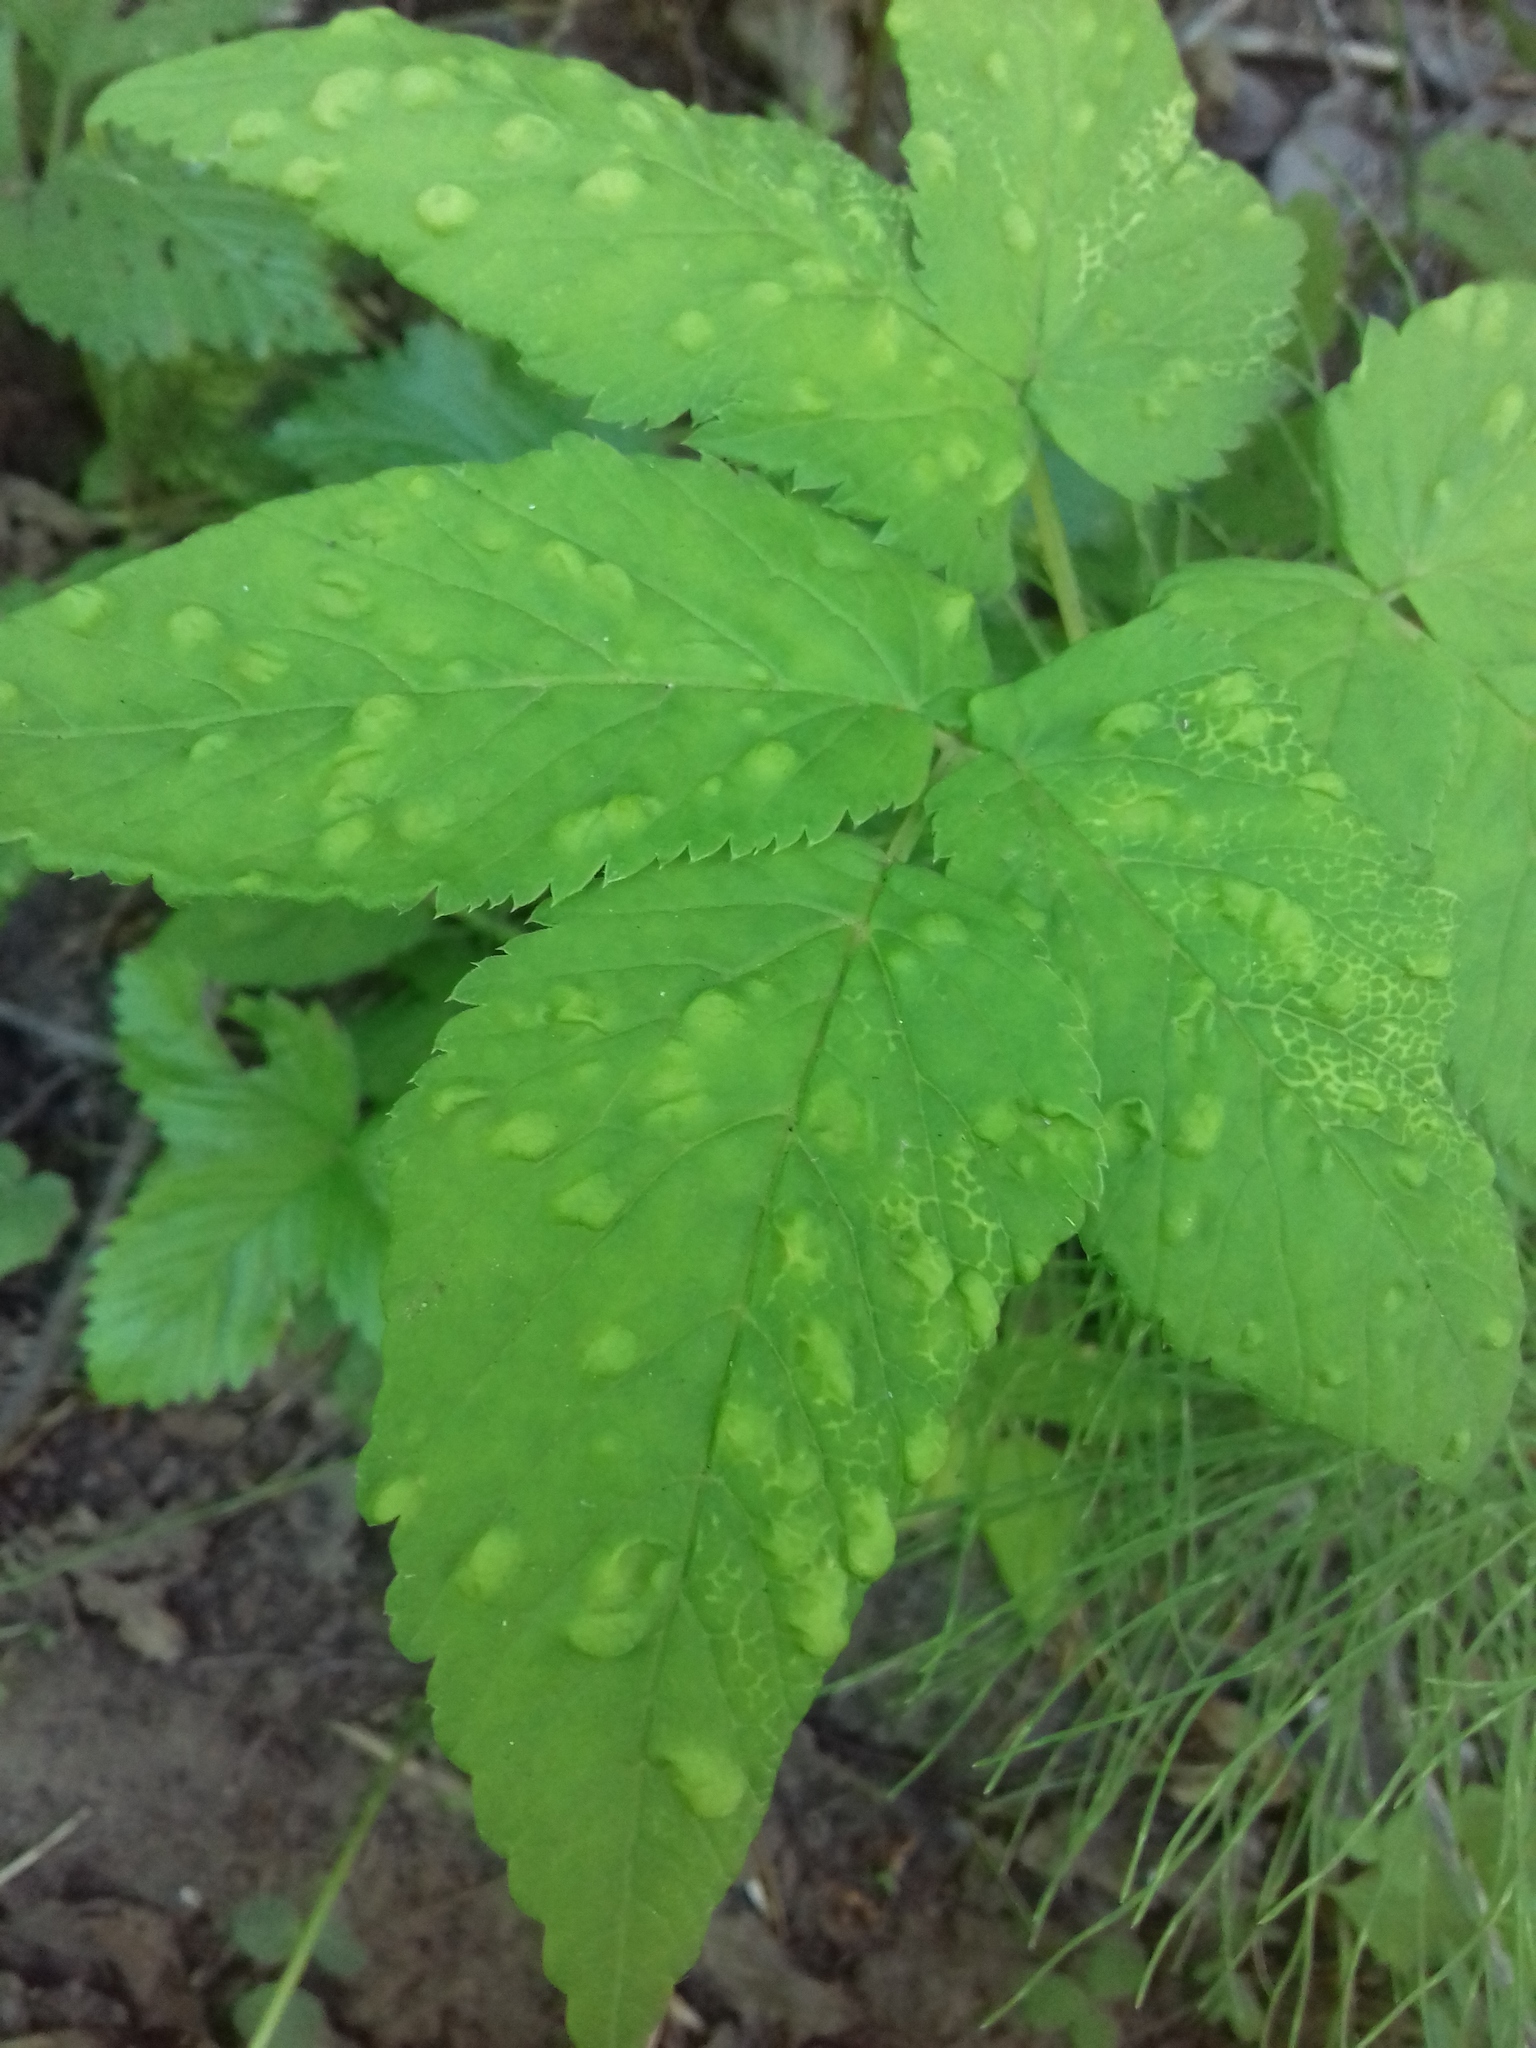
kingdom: Animalia
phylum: Arthropoda
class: Insecta
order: Hemiptera
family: Triozidae
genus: Trioza
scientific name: Trioza flavipennis
